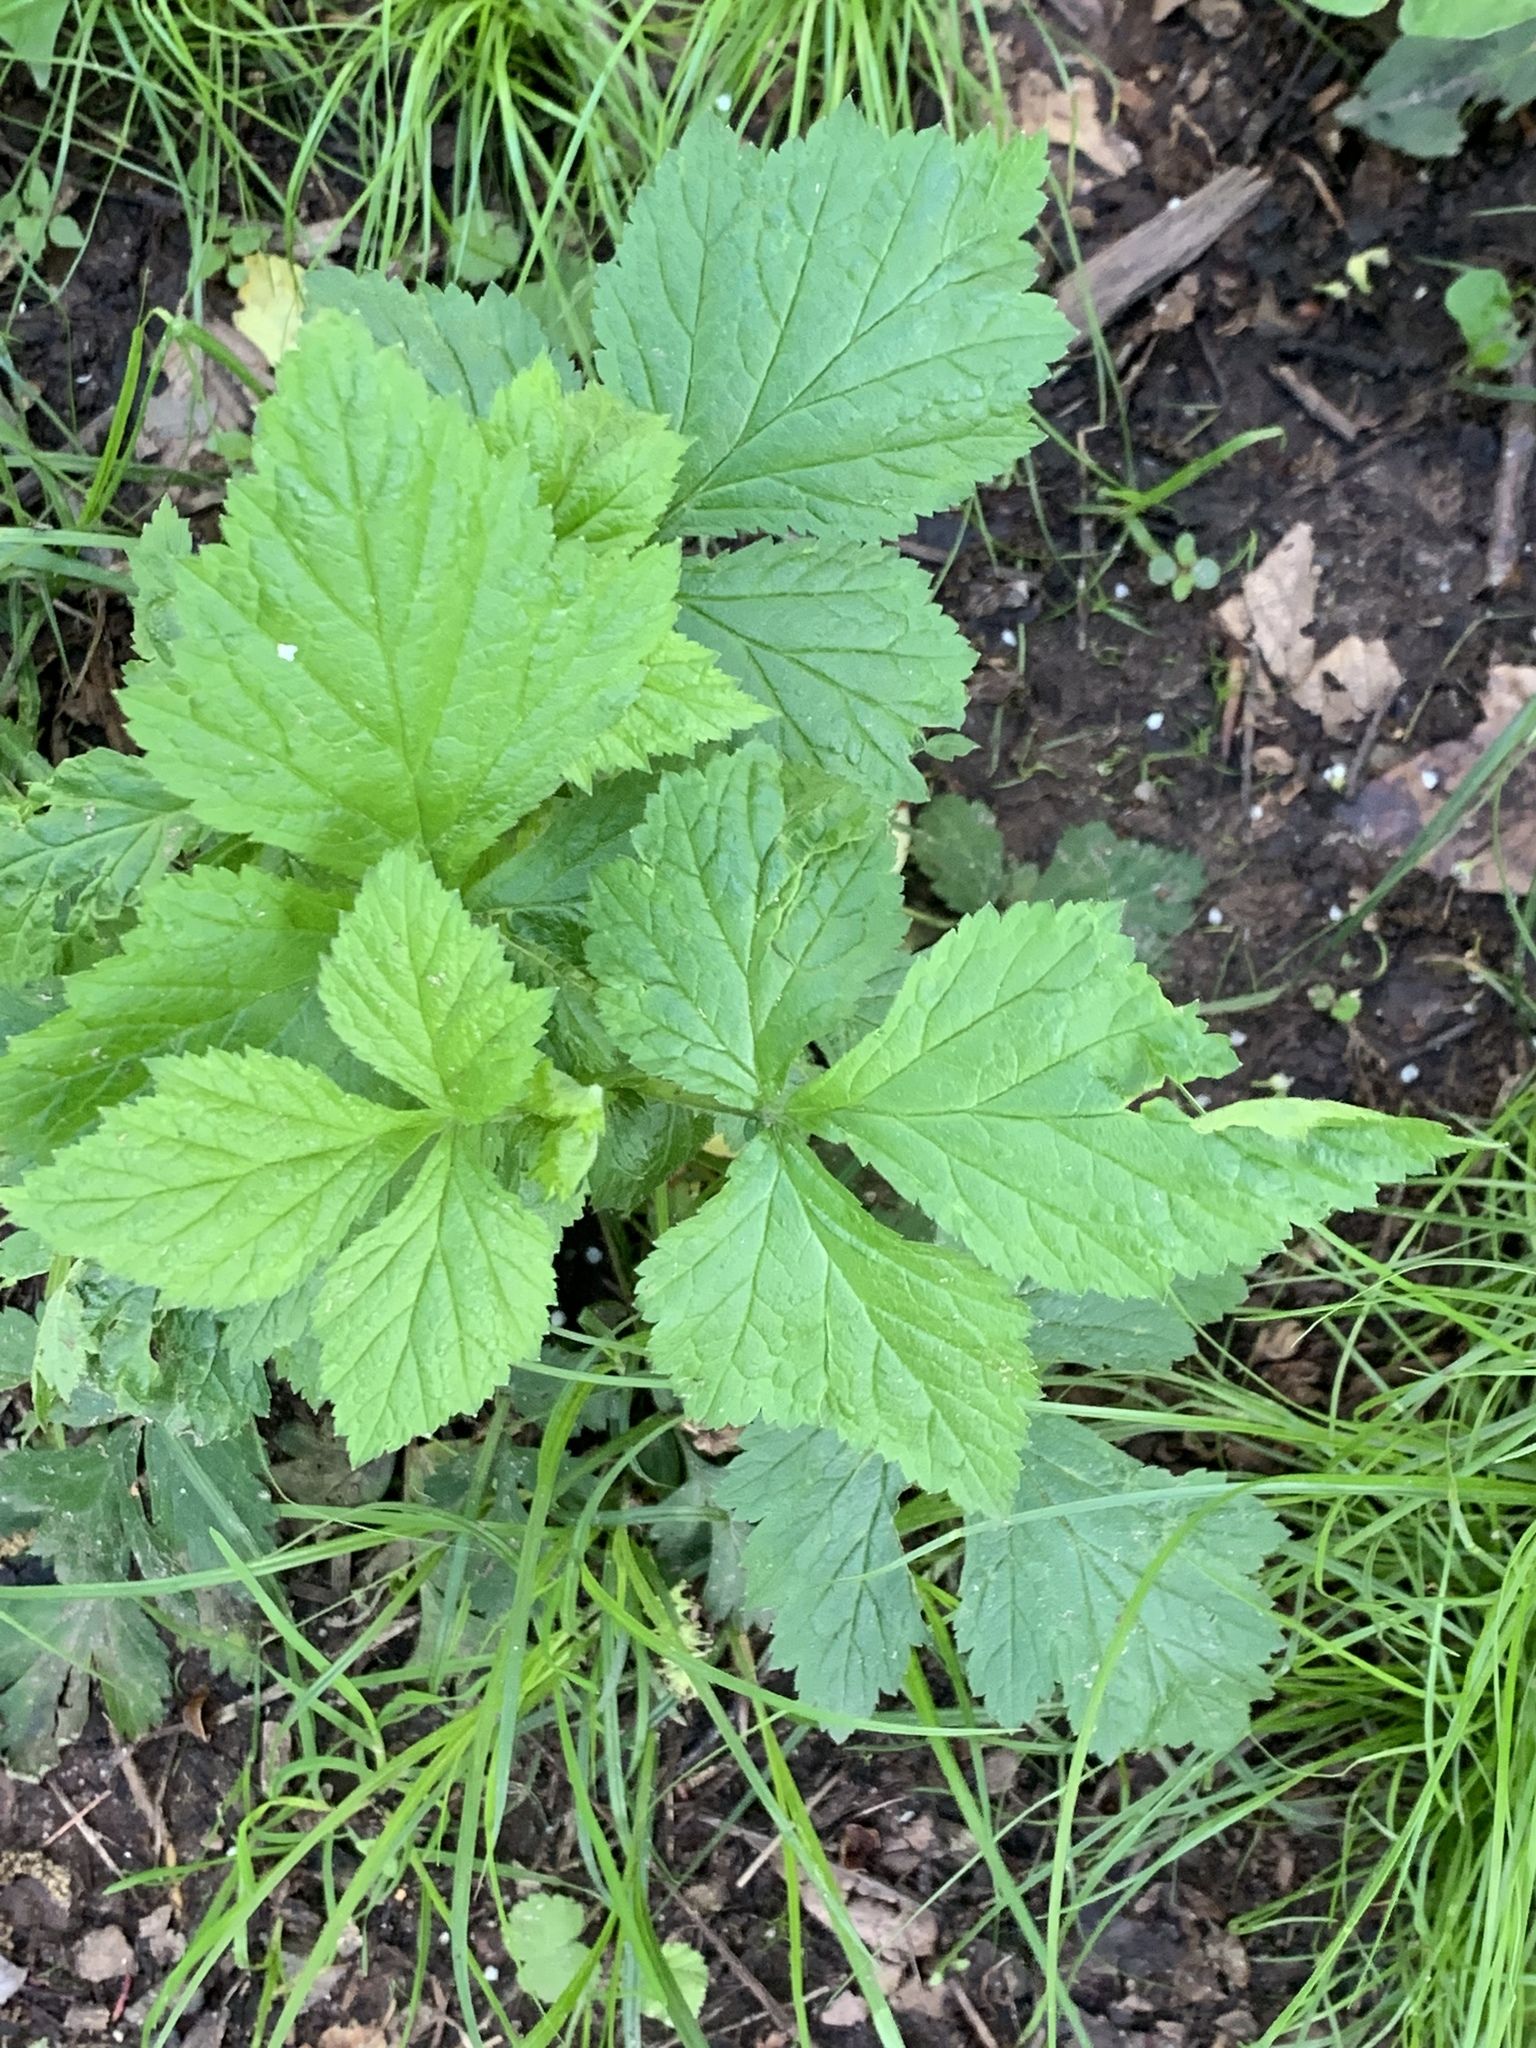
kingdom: Plantae
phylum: Tracheophyta
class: Magnoliopsida
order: Rosales
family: Rosaceae
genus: Geum
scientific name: Geum canadense
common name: White avens
